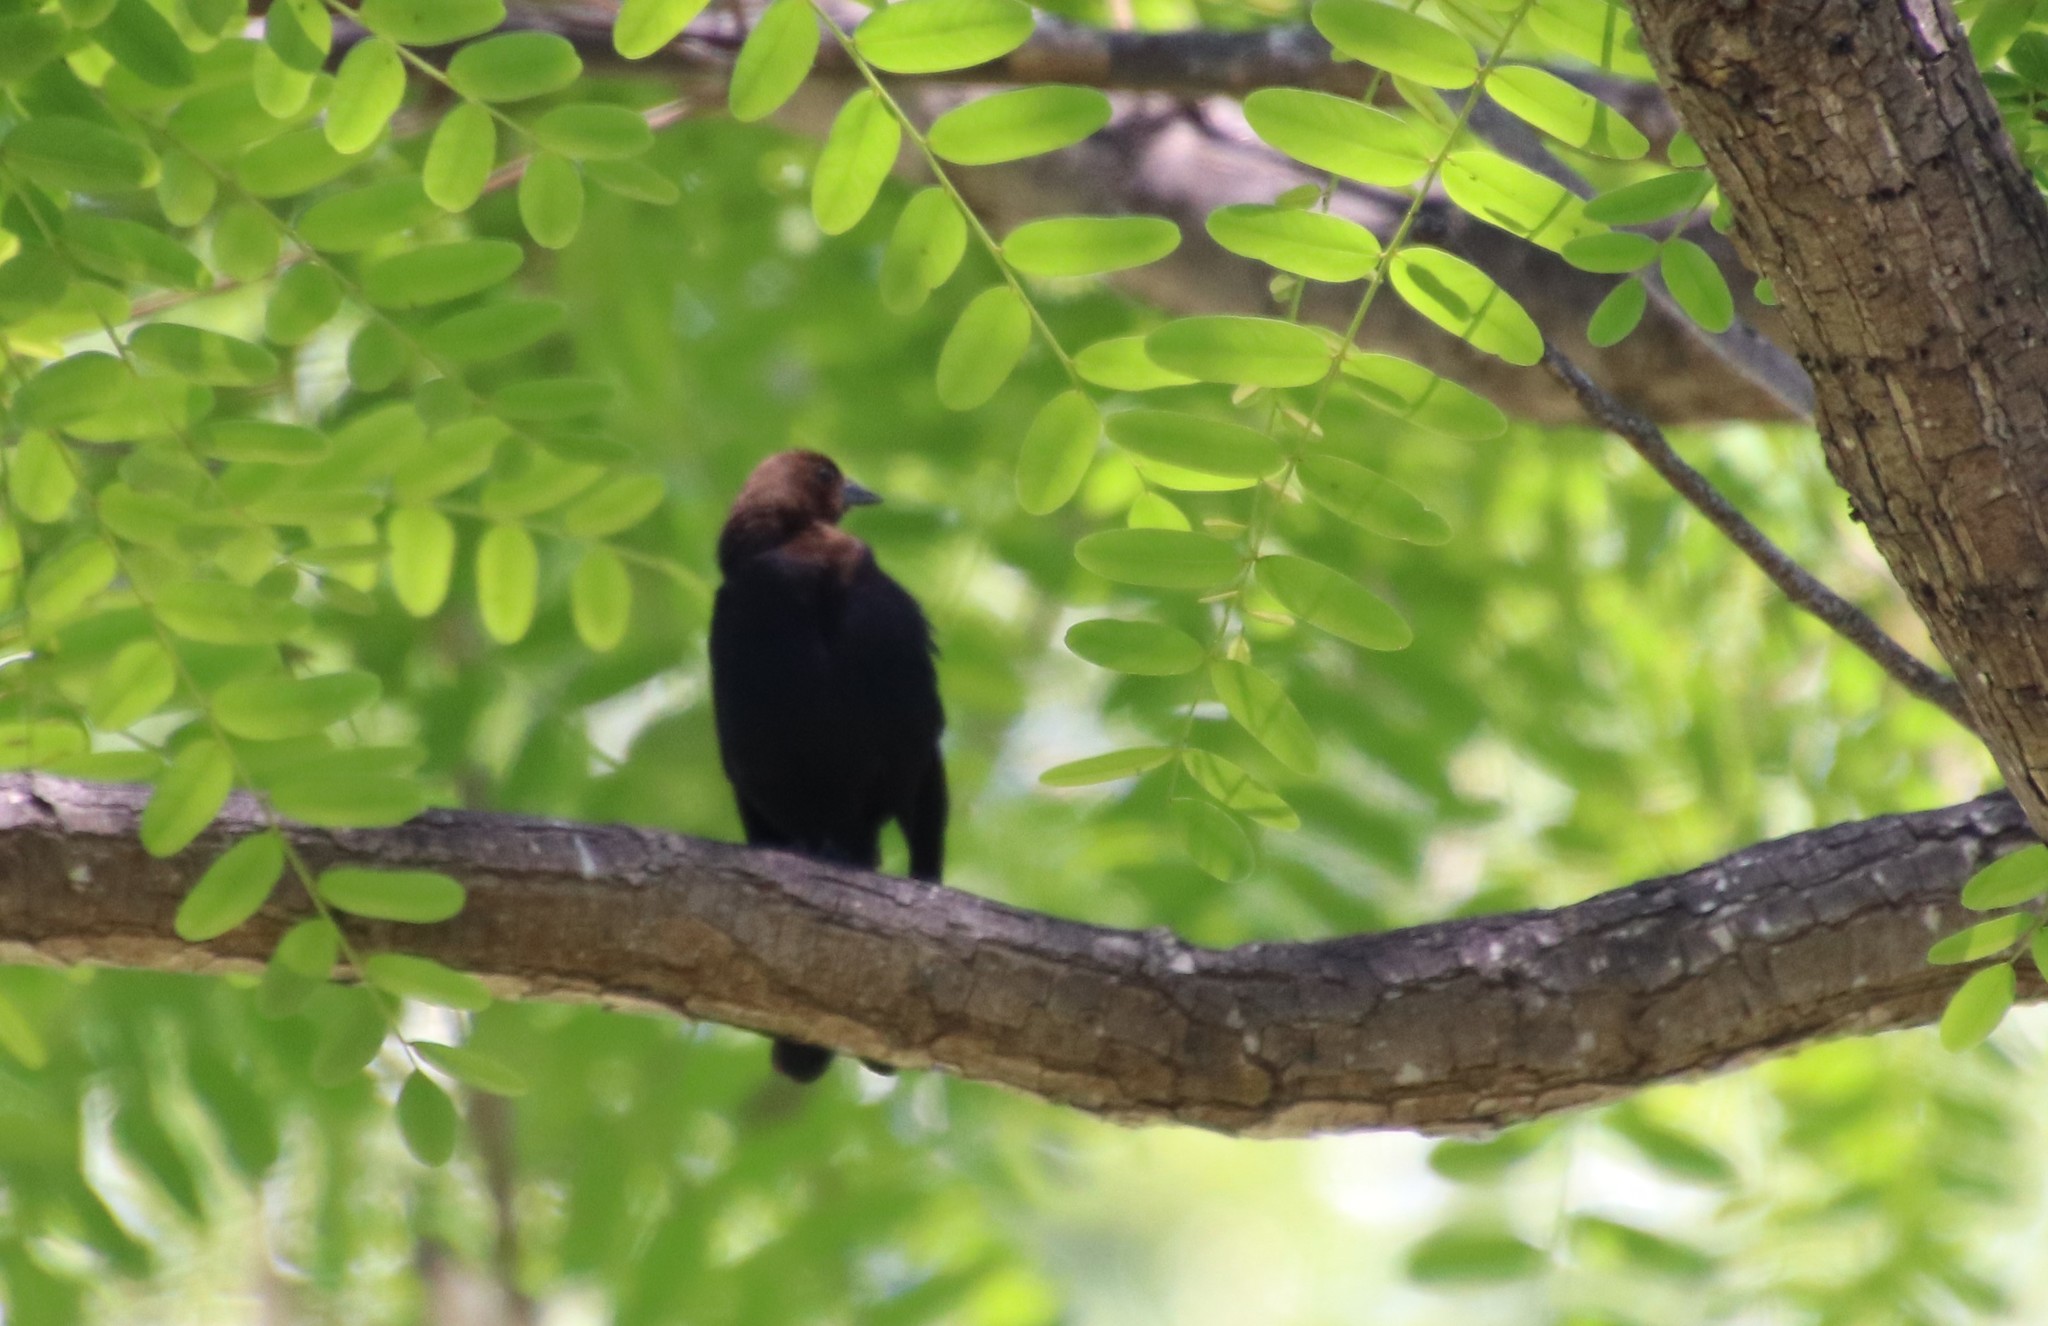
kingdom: Animalia
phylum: Chordata
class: Aves
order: Passeriformes
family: Icteridae
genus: Molothrus
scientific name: Molothrus ater
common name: Brown-headed cowbird
